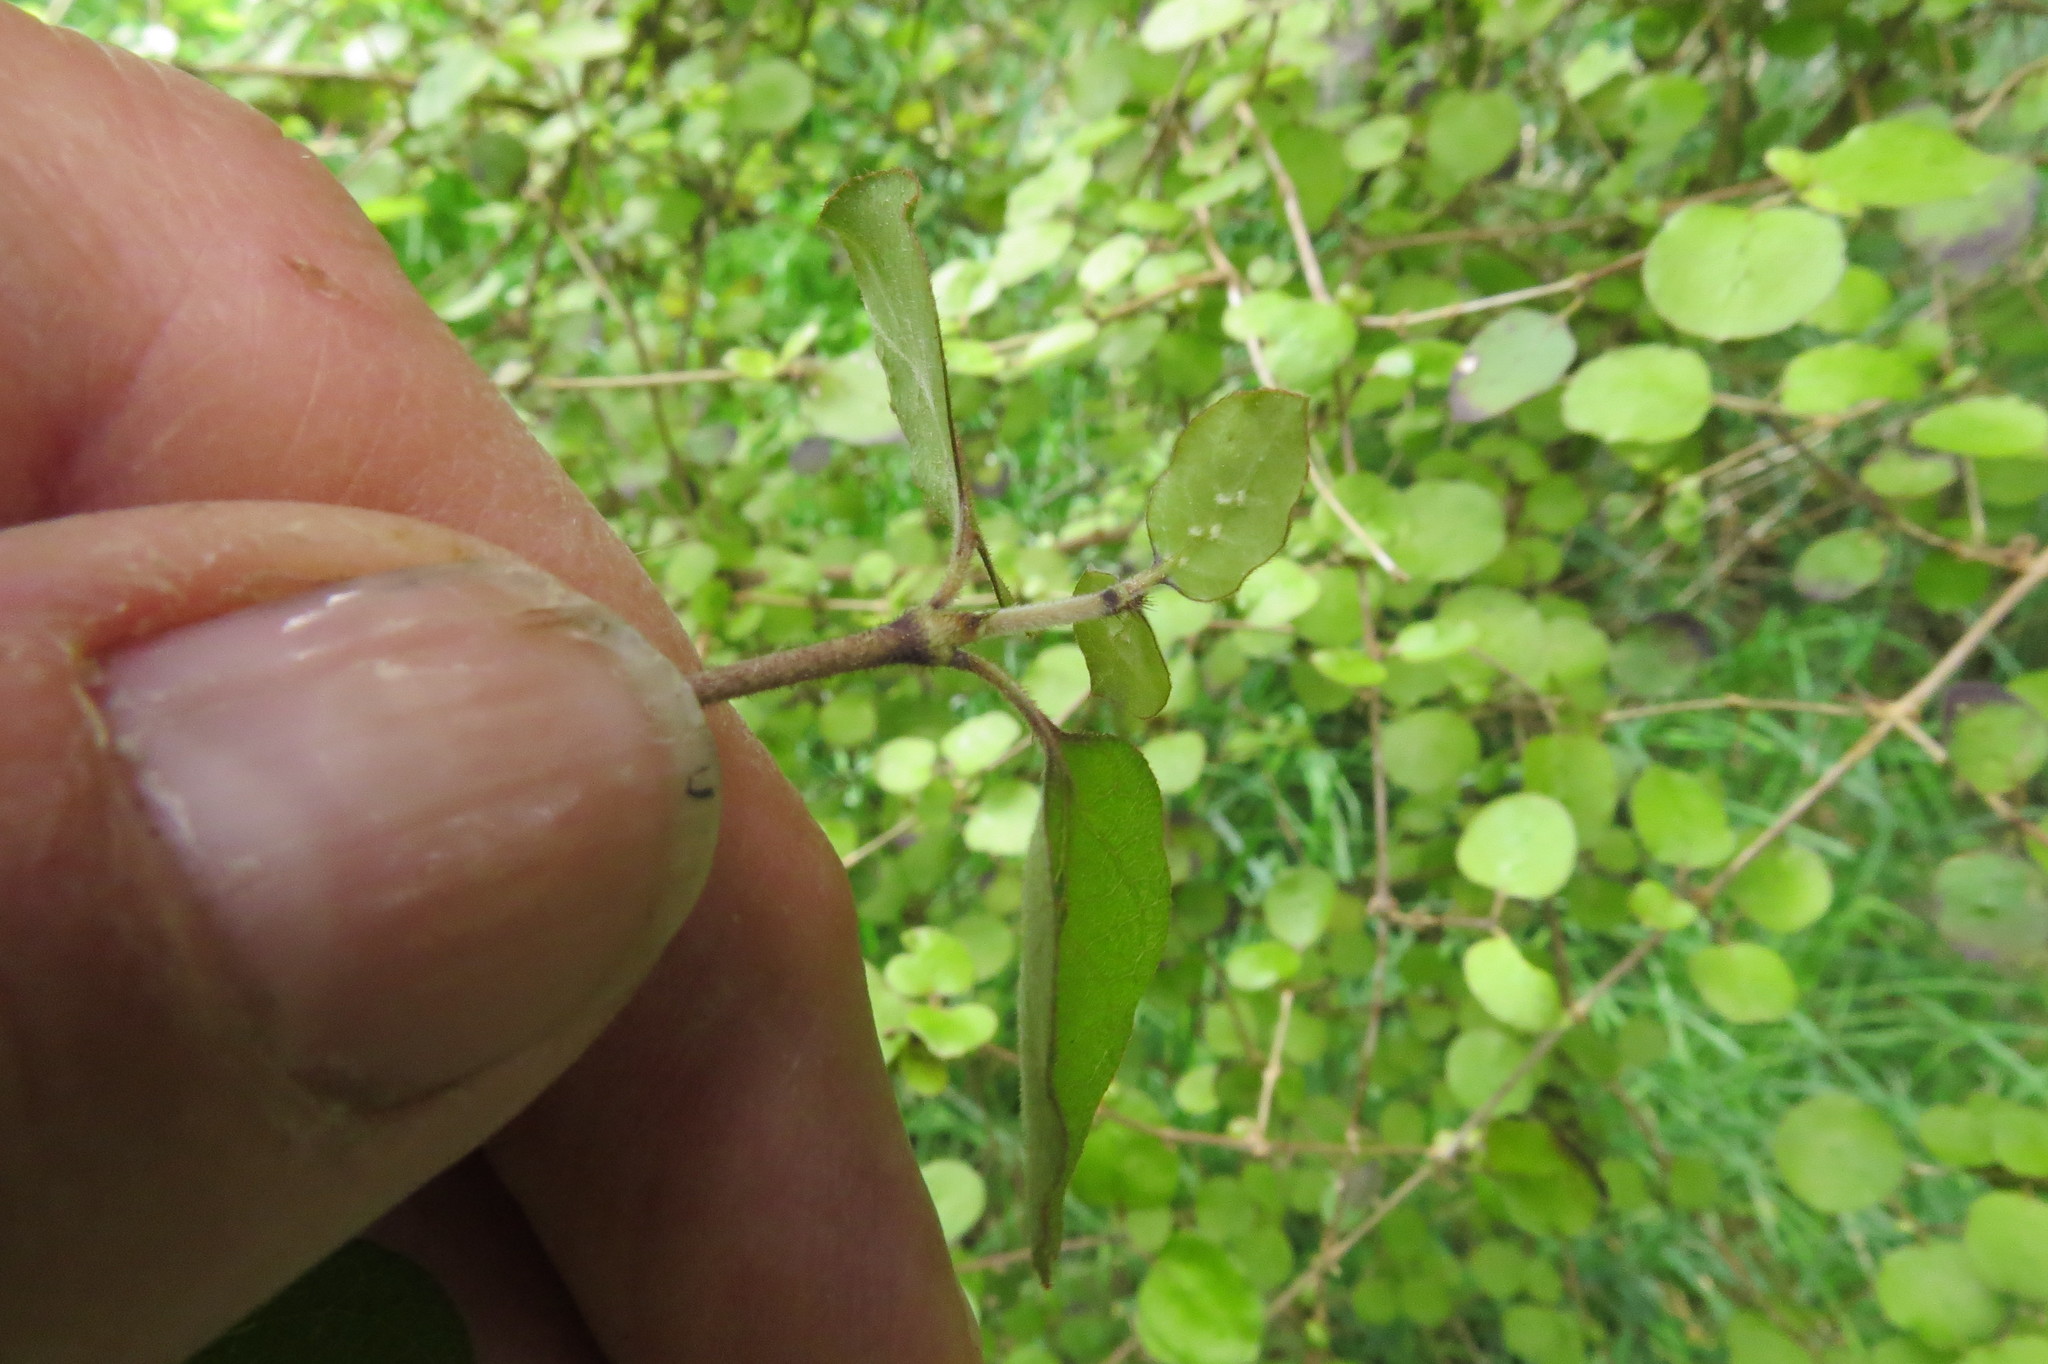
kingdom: Plantae
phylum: Tracheophyta
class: Magnoliopsida
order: Gentianales
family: Rubiaceae
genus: Coprosma
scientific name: Coprosma rotundifolia
